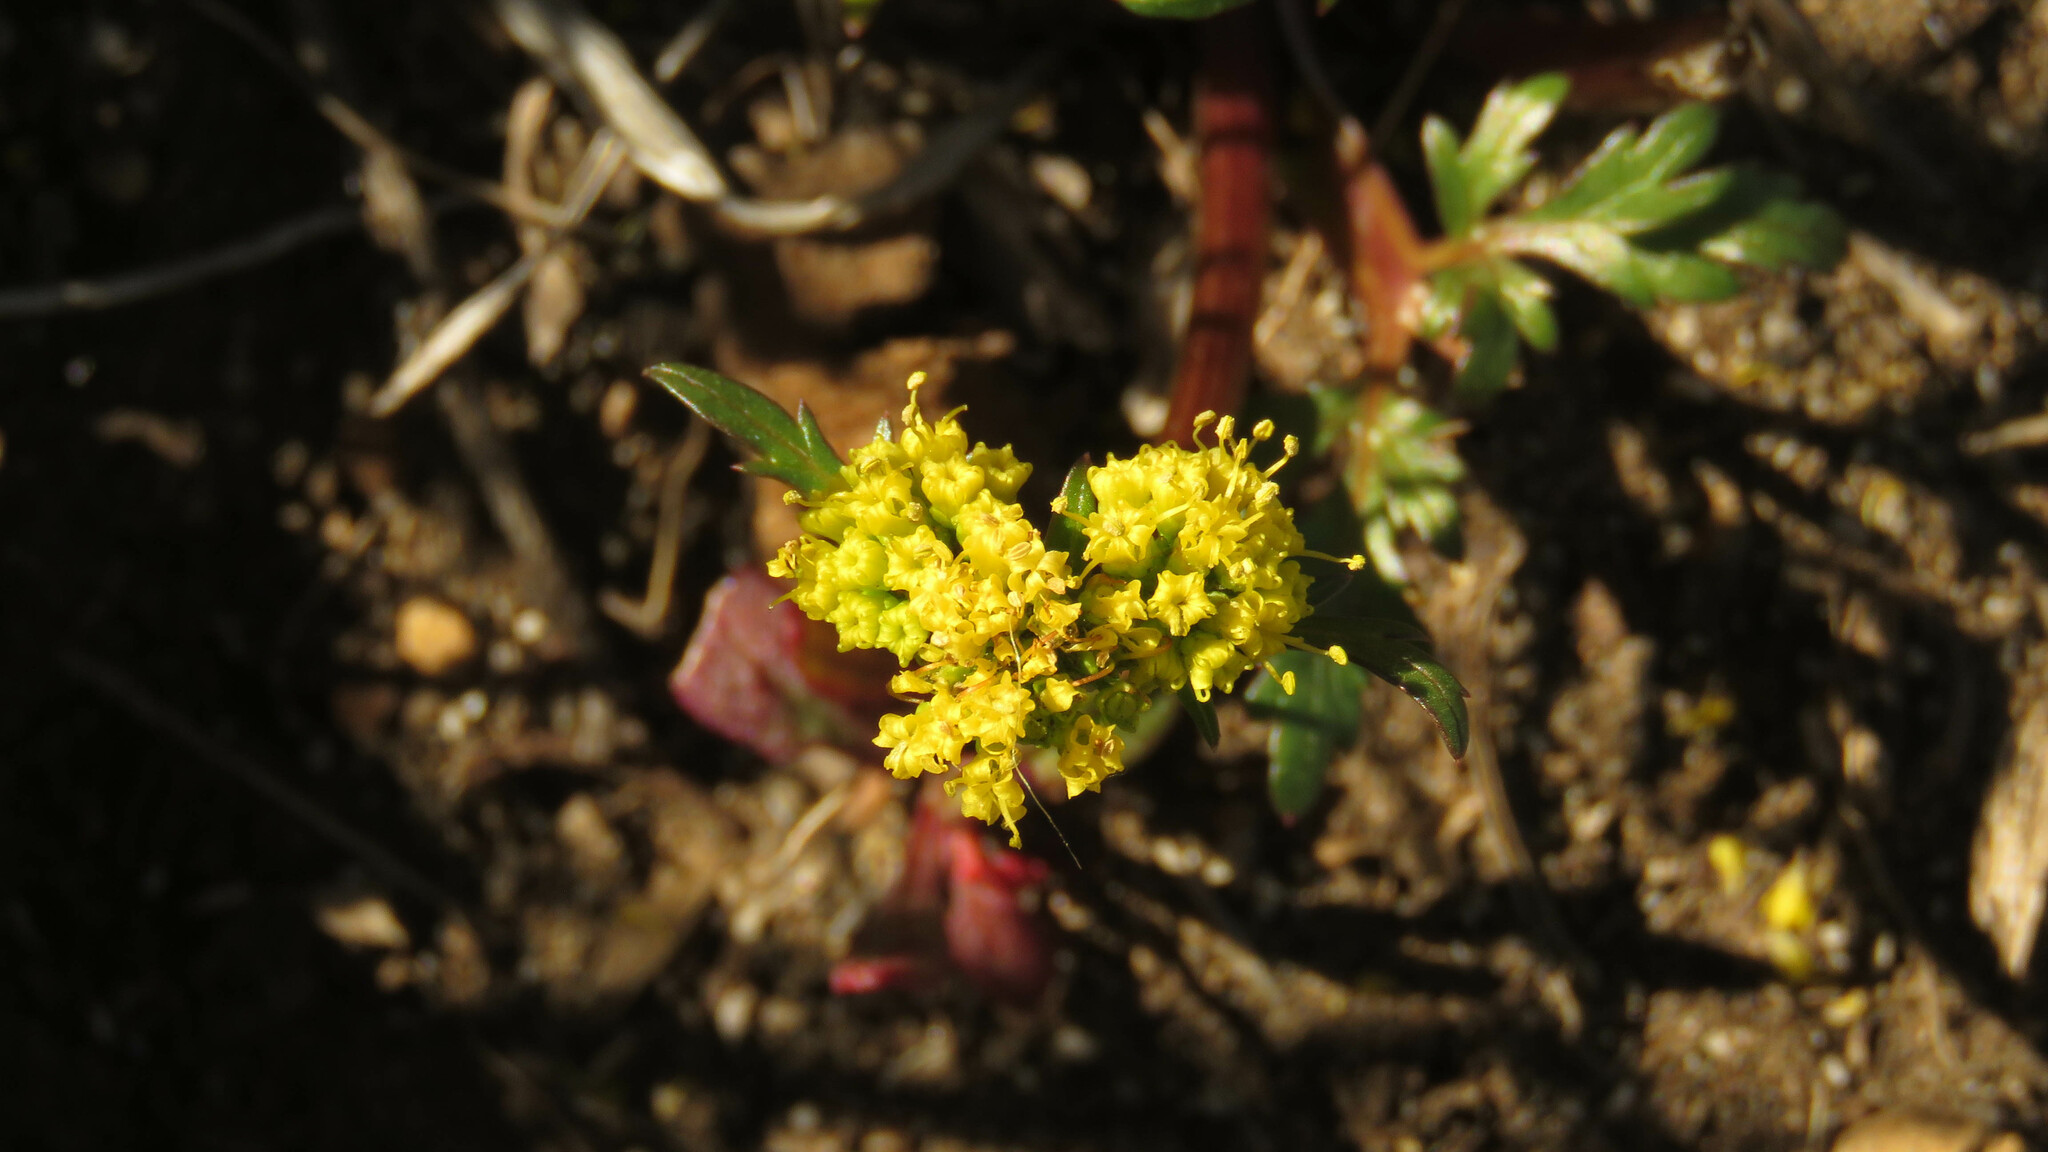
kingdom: Plantae
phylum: Tracheophyta
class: Magnoliopsida
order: Apiales
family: Apiaceae
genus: Sanicula
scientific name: Sanicula graveolens
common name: Sierra sanicle
